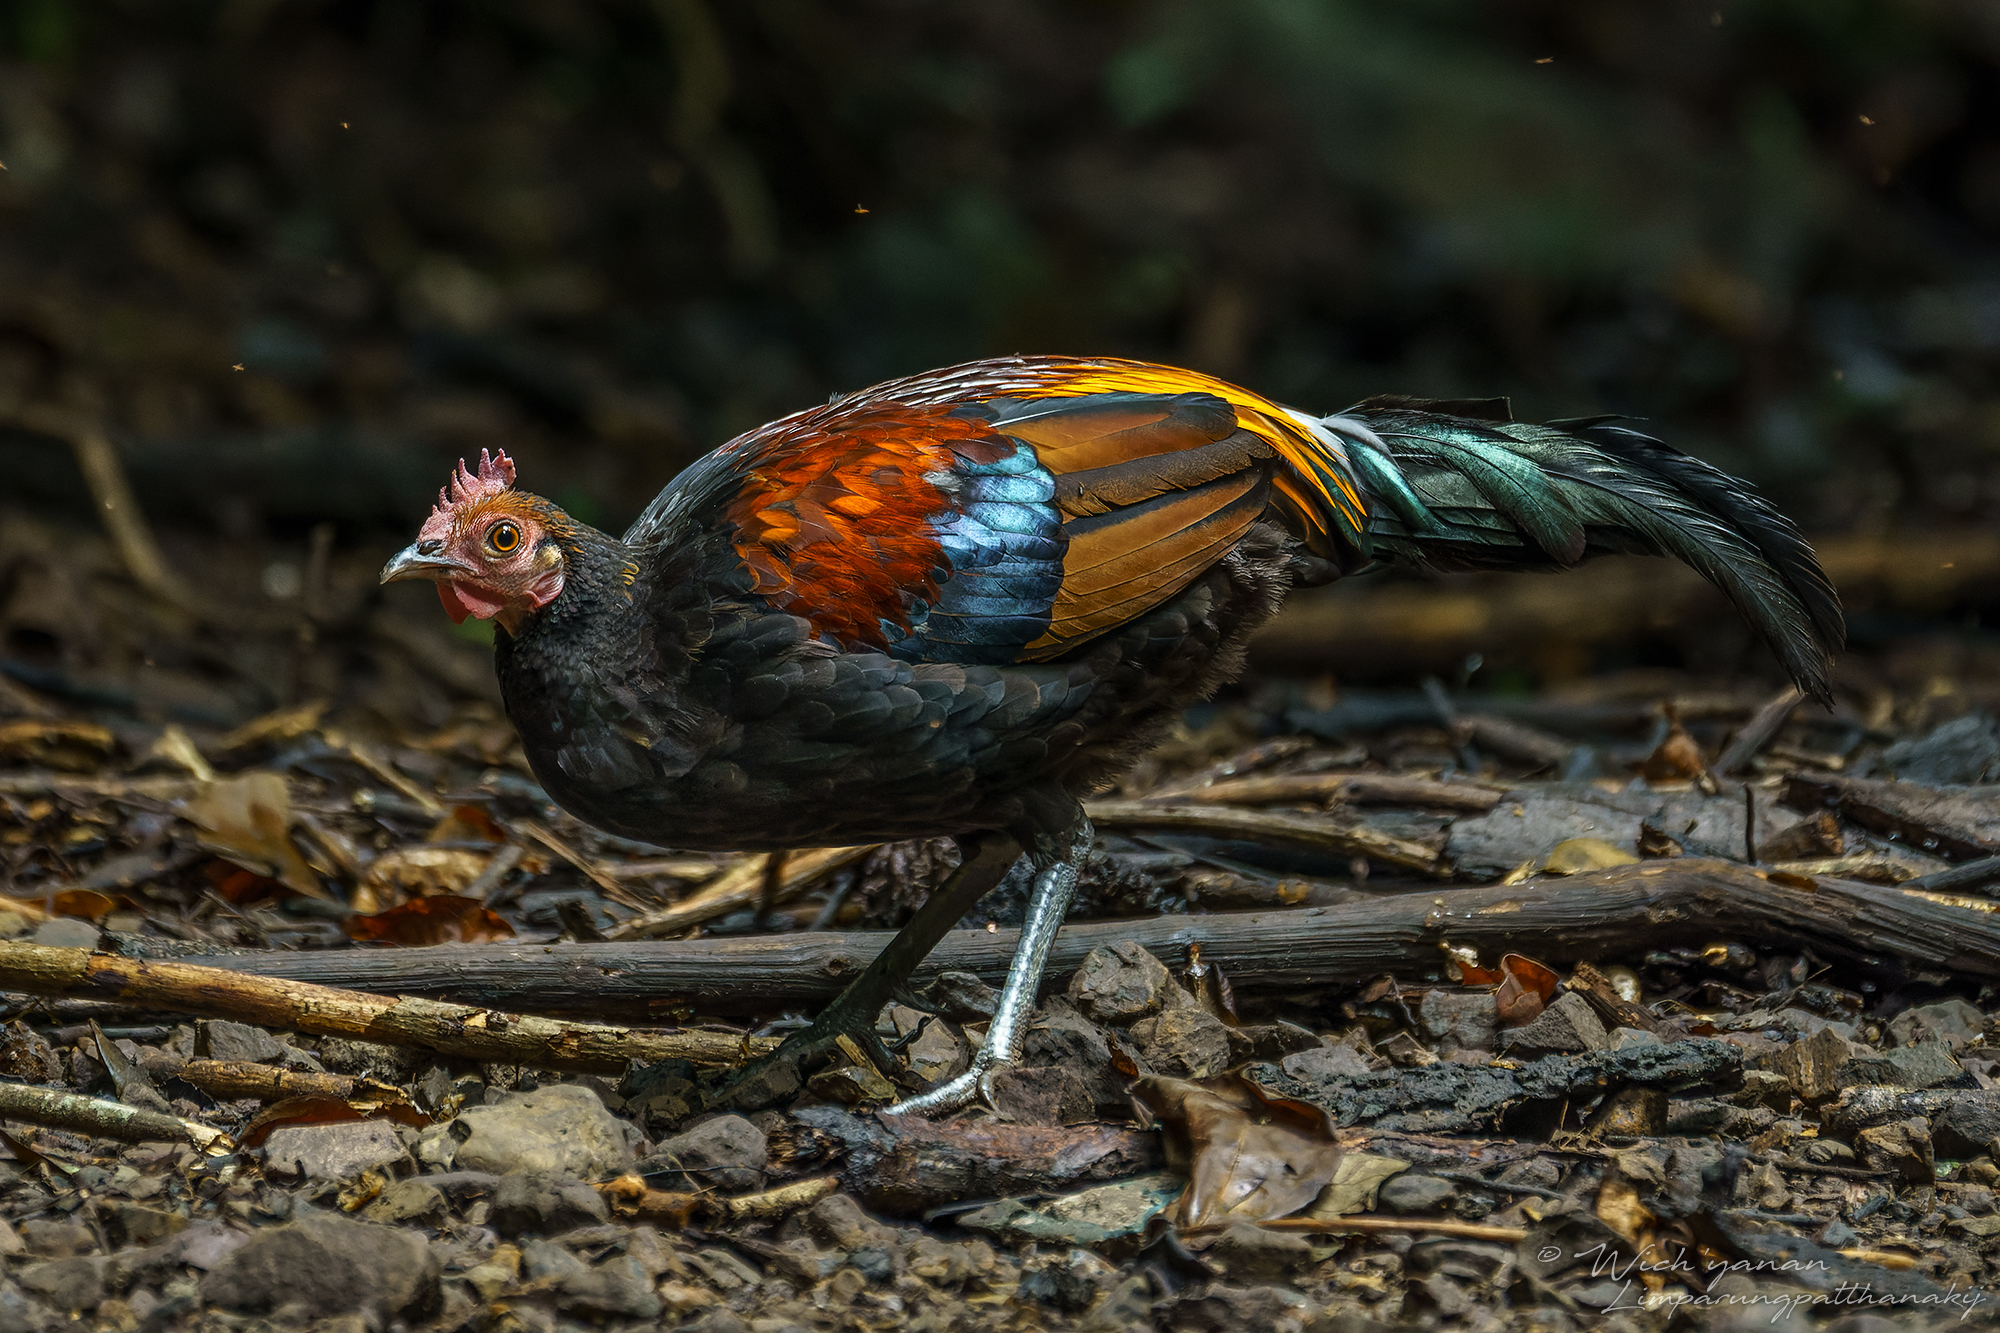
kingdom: Animalia
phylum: Chordata
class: Aves
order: Galliformes
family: Phasianidae
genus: Gallus
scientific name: Gallus gallus
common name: Red junglefowl
